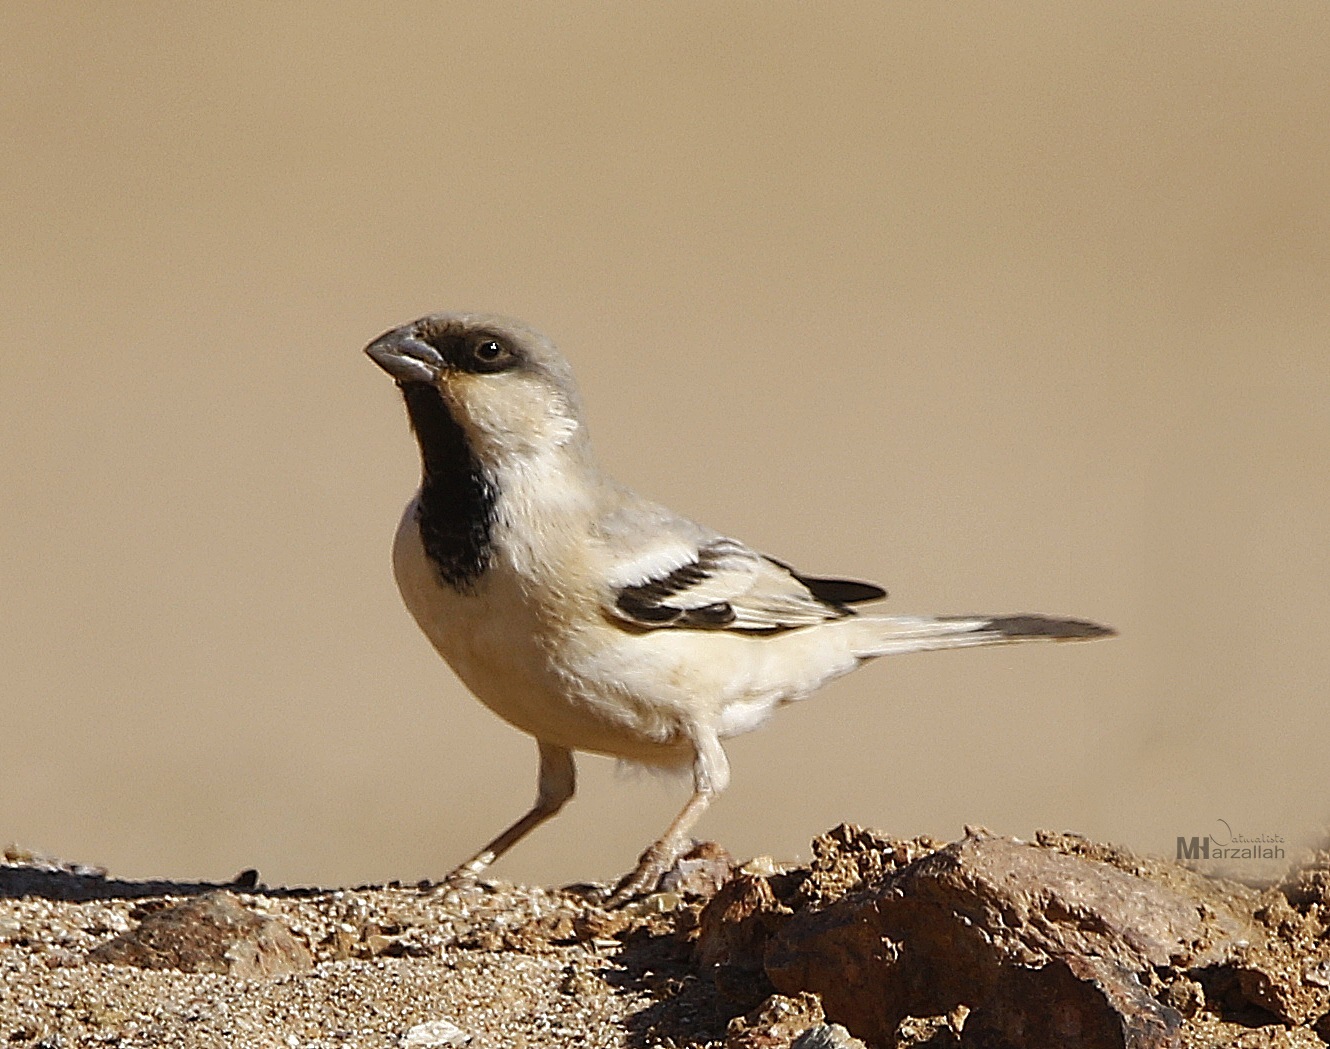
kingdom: Animalia
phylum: Chordata
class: Aves
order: Passeriformes
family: Passeridae
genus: Passer
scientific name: Passer simplex
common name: Desert sparrow
